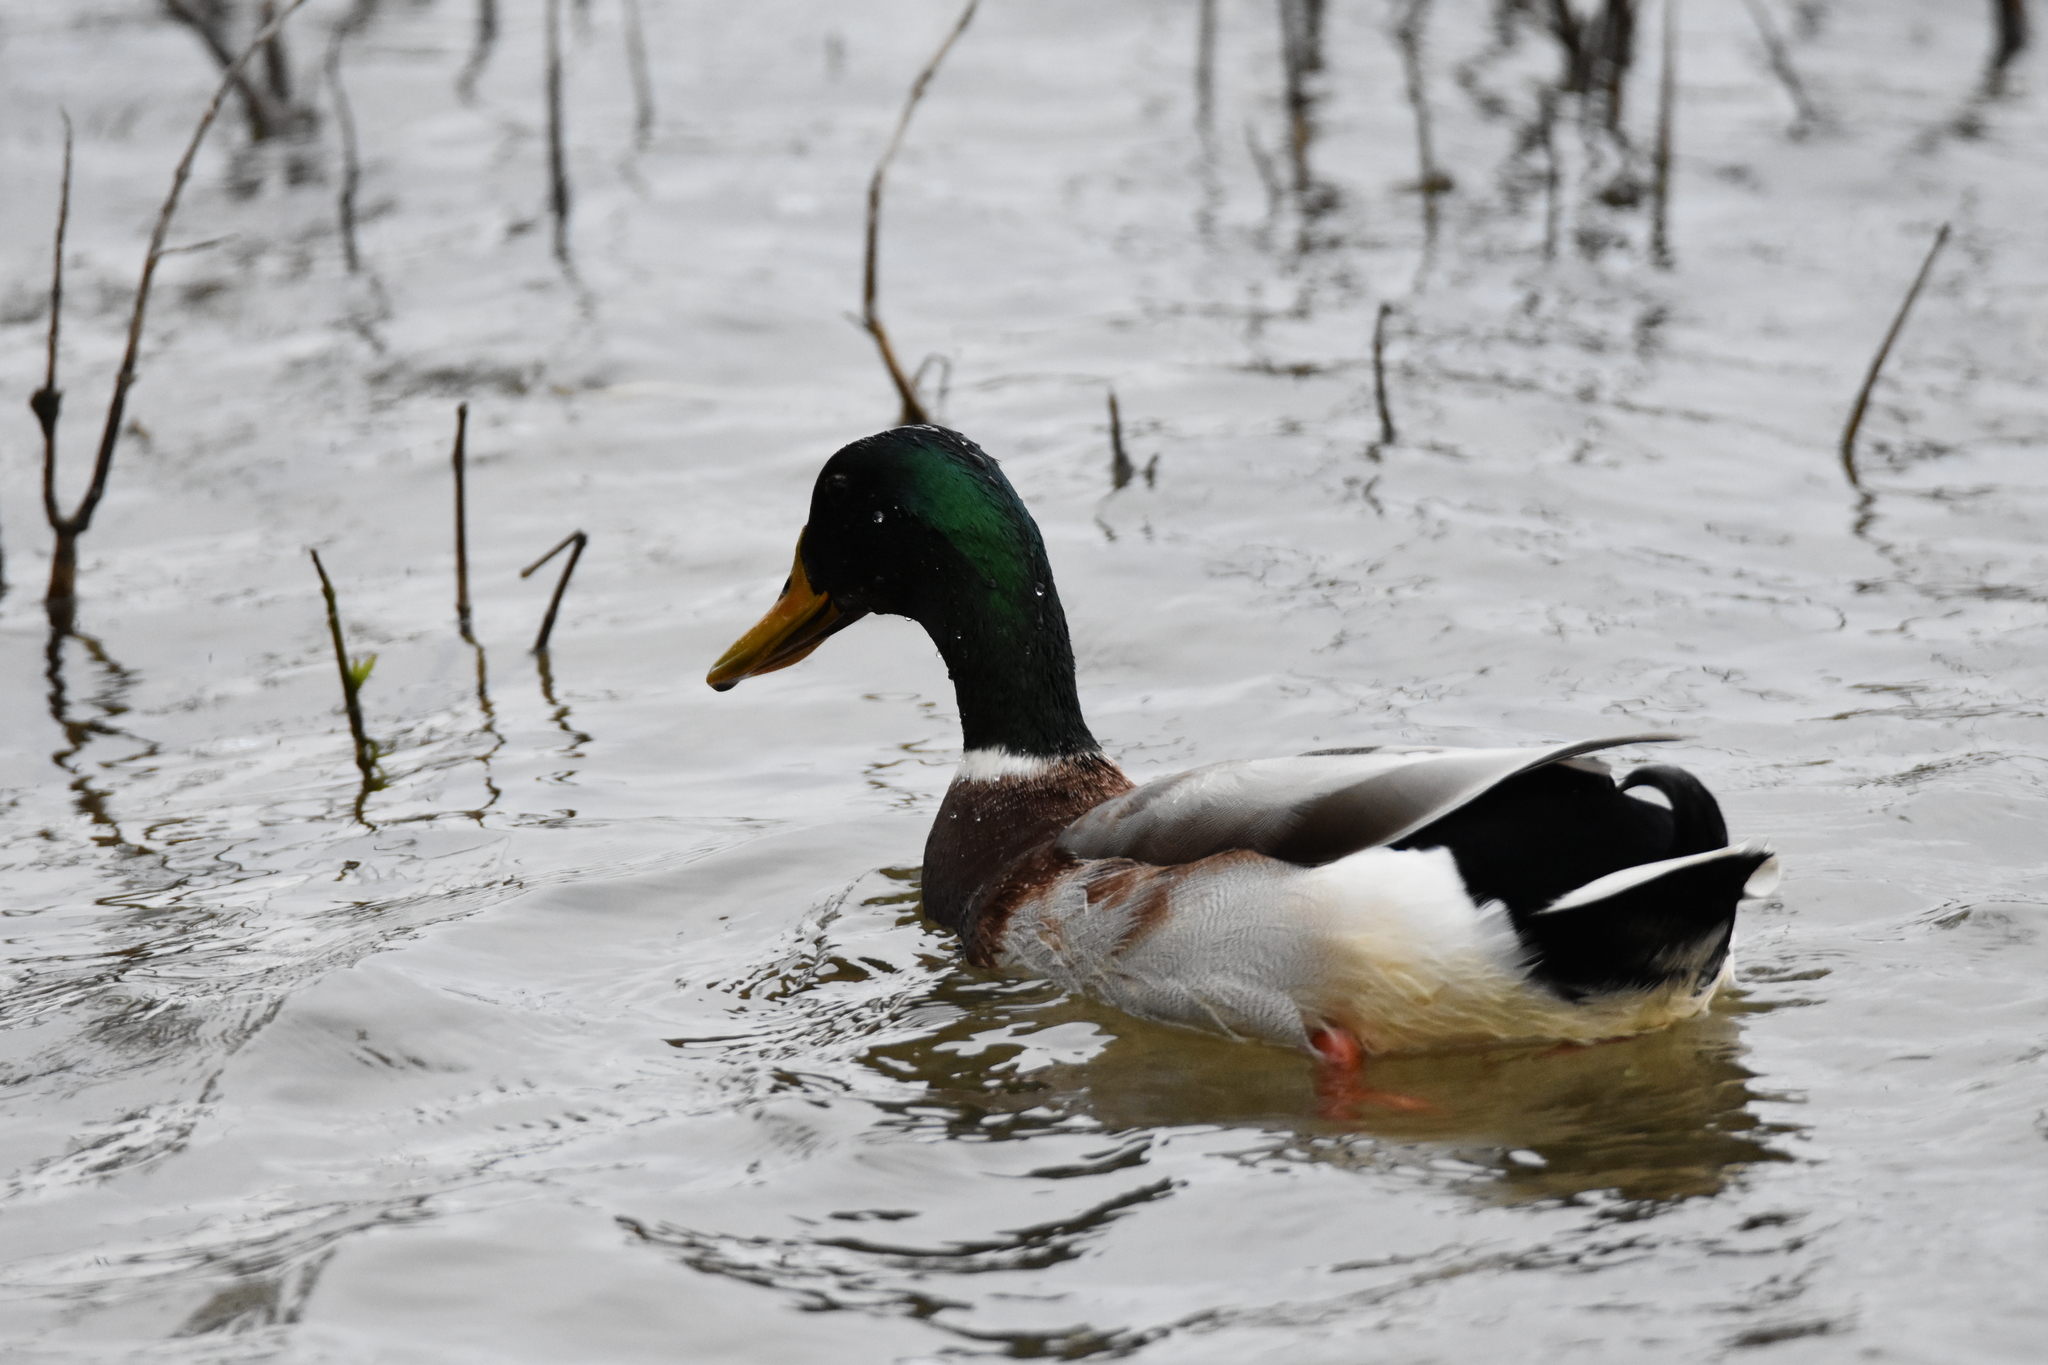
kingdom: Animalia
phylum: Chordata
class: Aves
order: Anseriformes
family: Anatidae
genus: Anas
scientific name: Anas platyrhynchos
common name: Mallard
